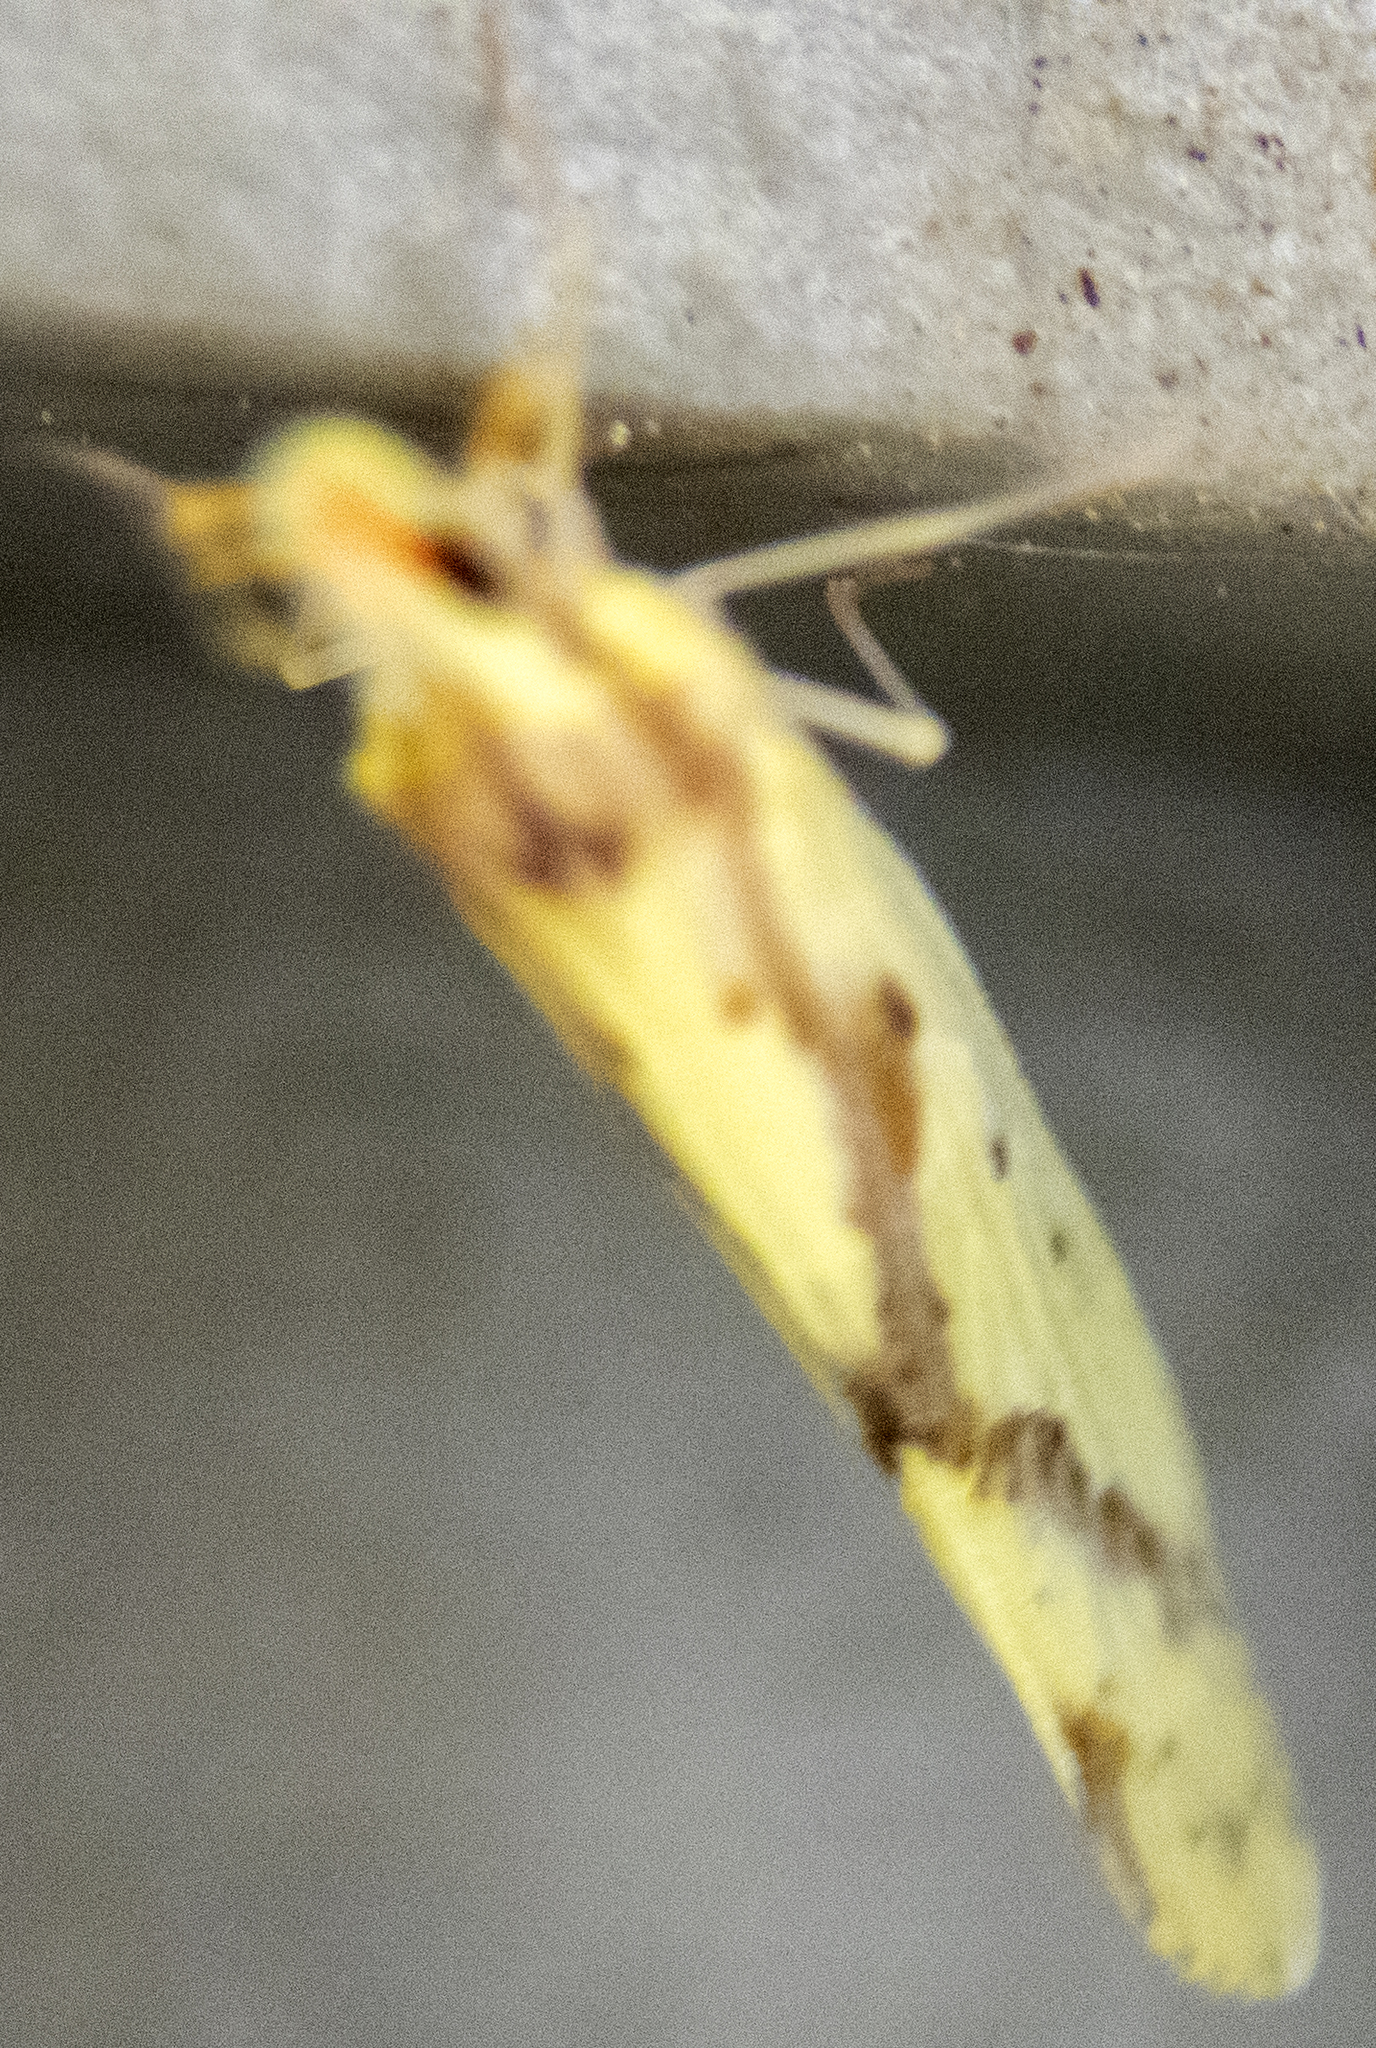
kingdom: Animalia
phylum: Arthropoda
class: Insecta
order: Hemiptera
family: Derbidae
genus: Otiocerus
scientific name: Otiocerus wolfii
